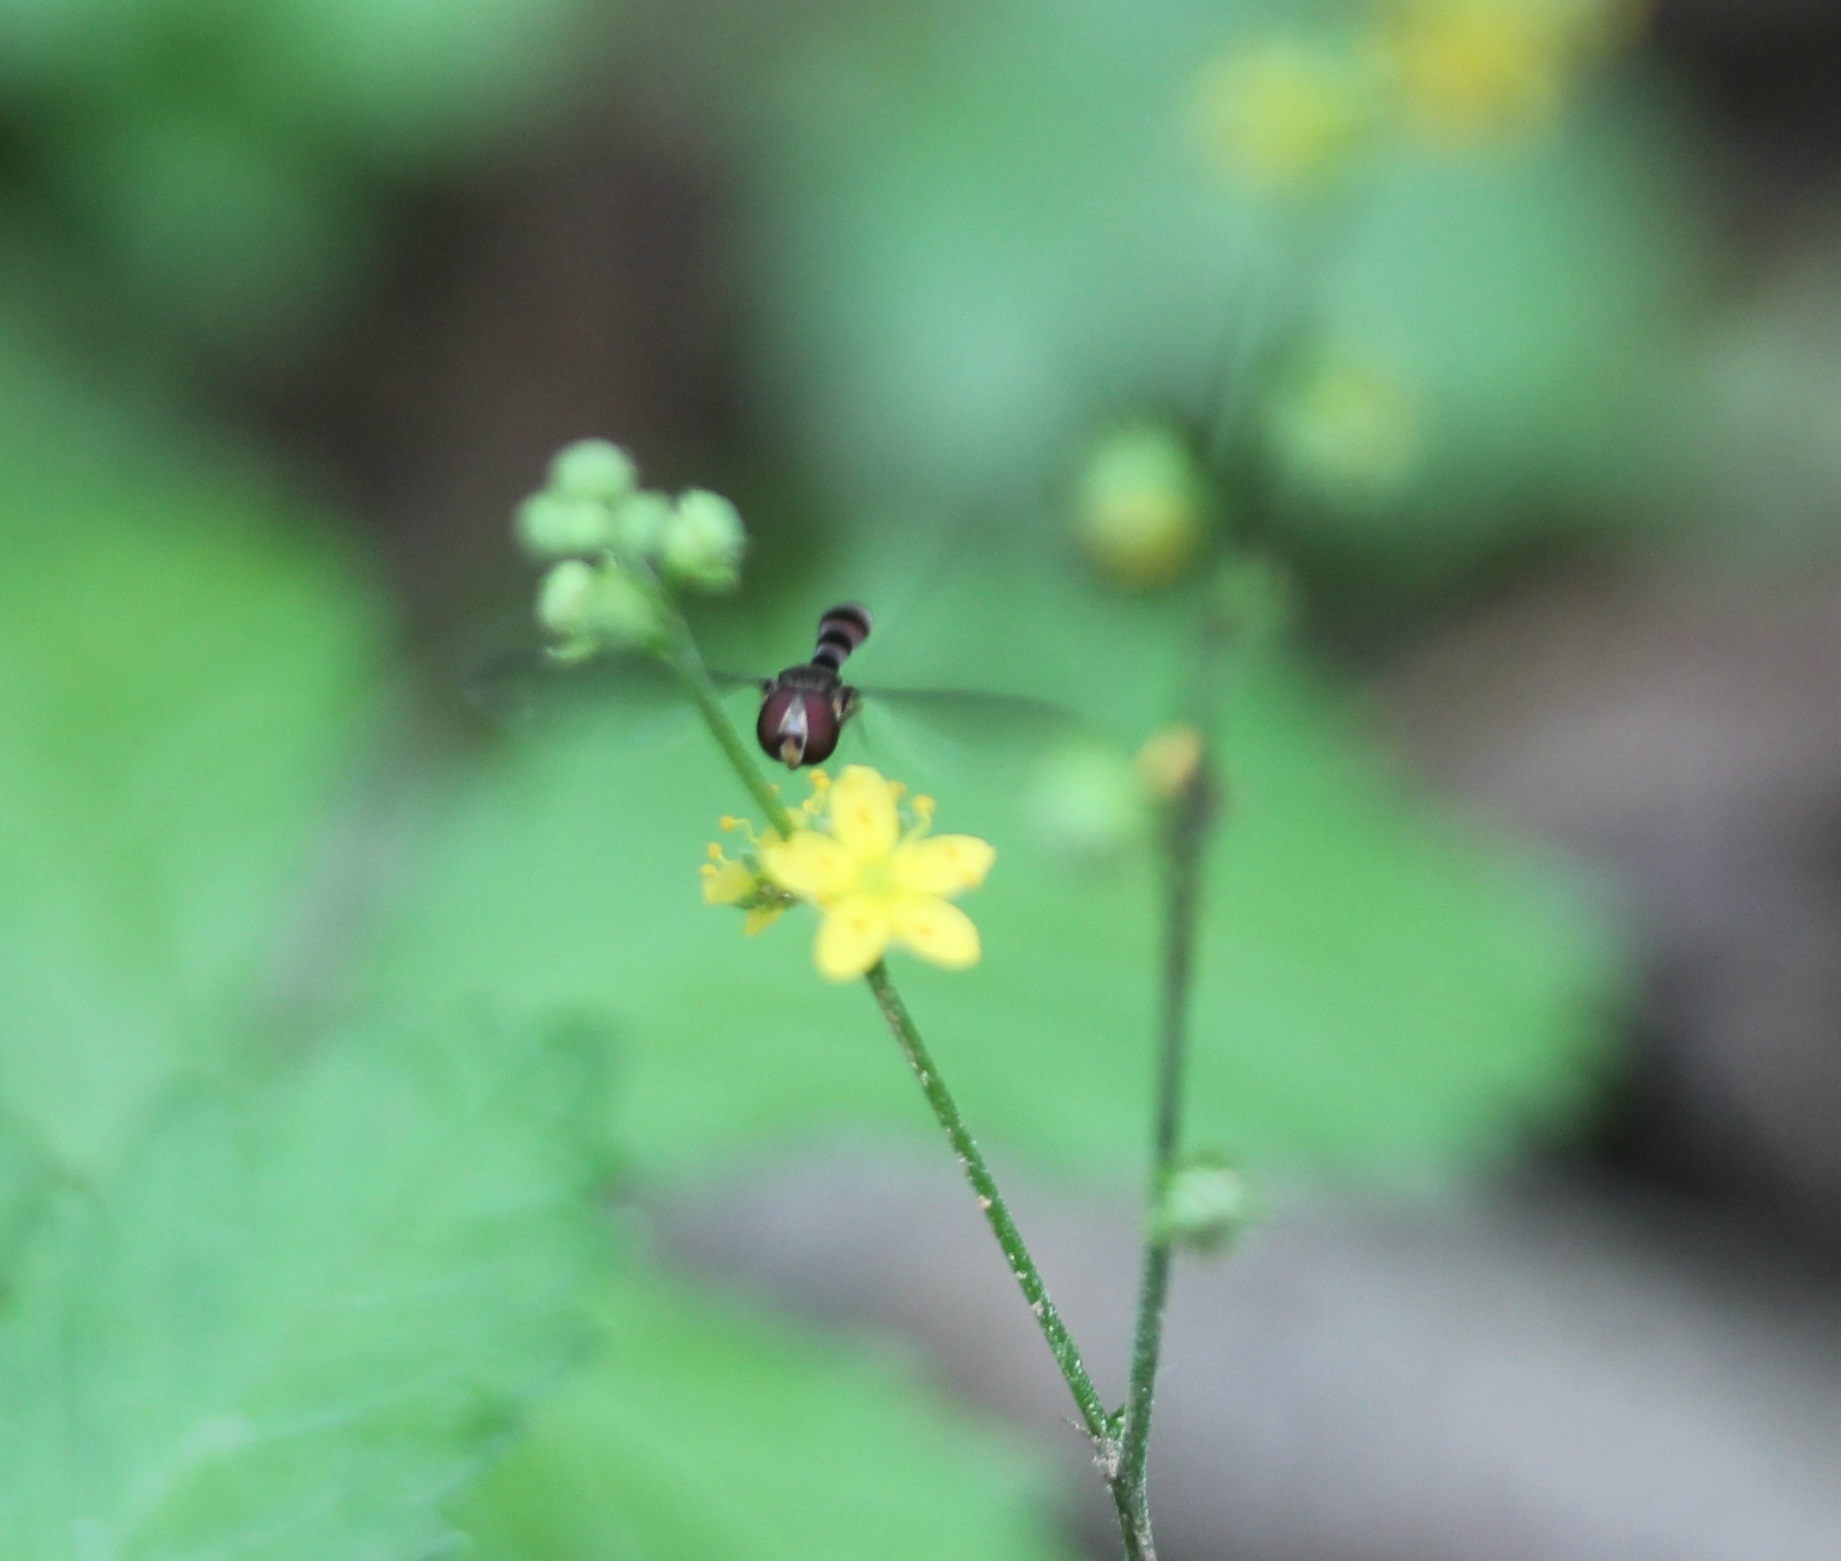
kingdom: Animalia
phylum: Arthropoda
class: Insecta
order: Diptera
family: Syrphidae
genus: Ocyptamus
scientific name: Ocyptamus fuscipennis
